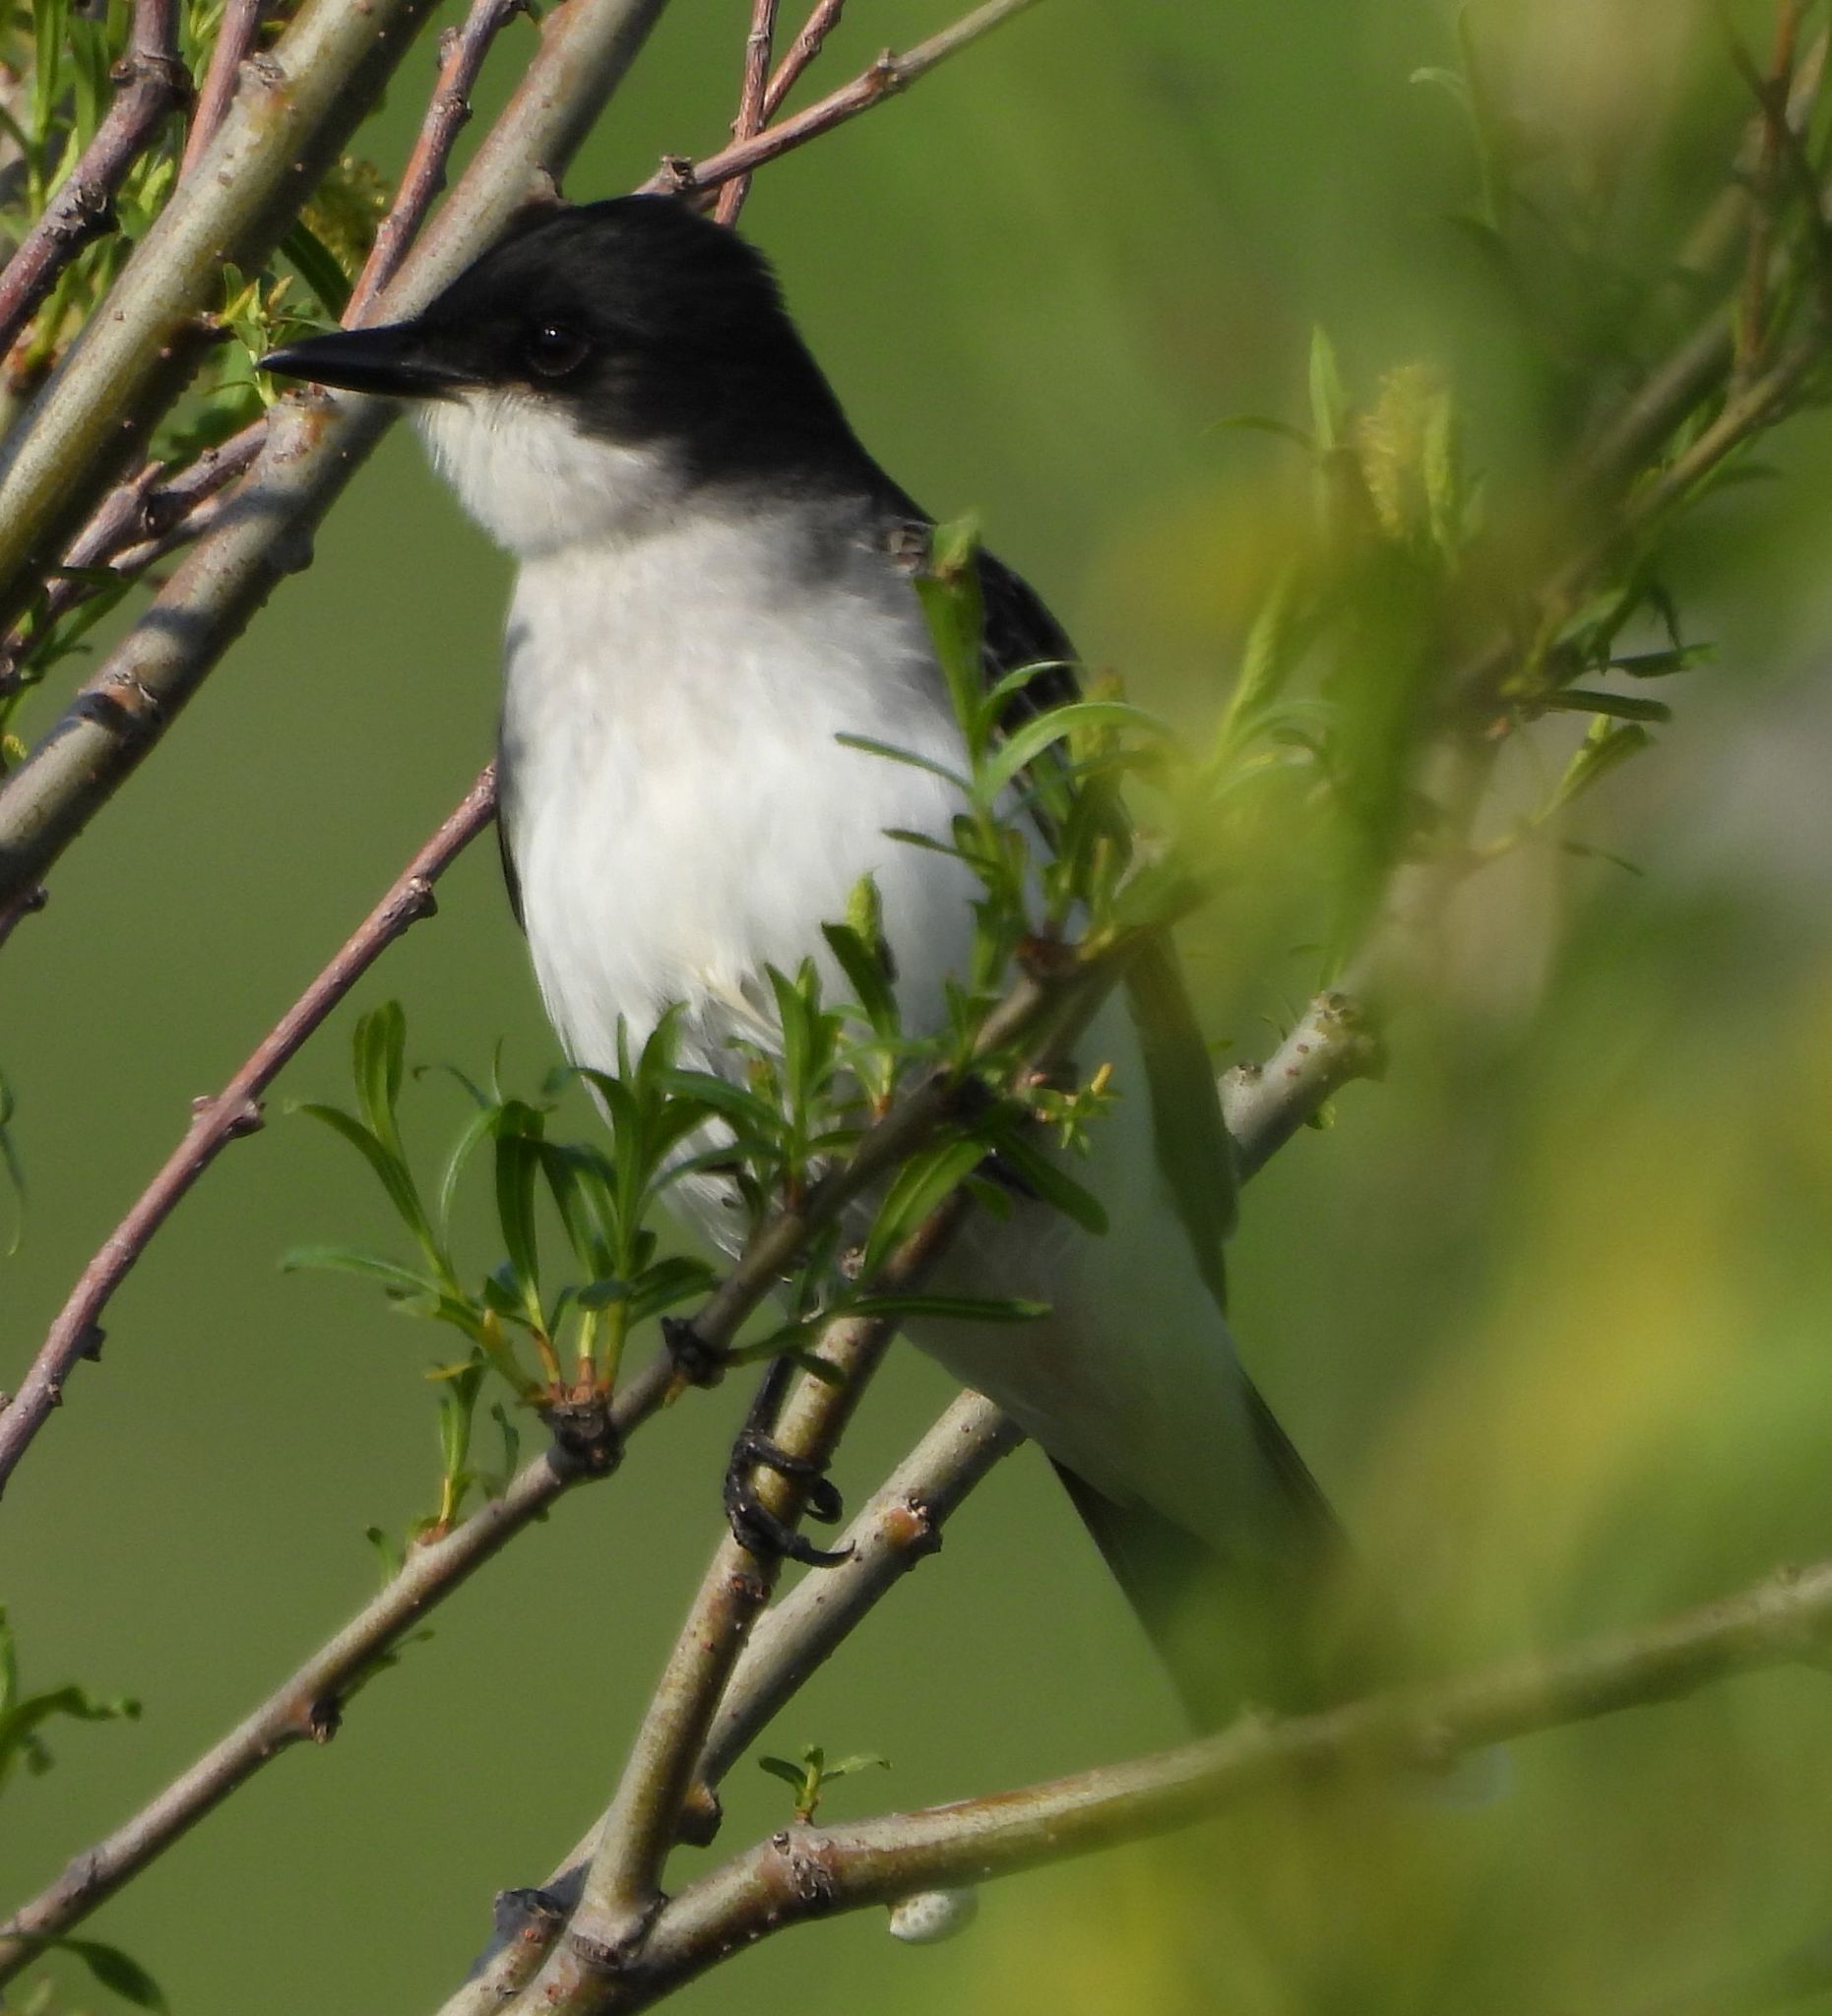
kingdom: Animalia
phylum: Chordata
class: Aves
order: Passeriformes
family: Tyrannidae
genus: Tyrannus
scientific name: Tyrannus tyrannus
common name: Eastern kingbird
